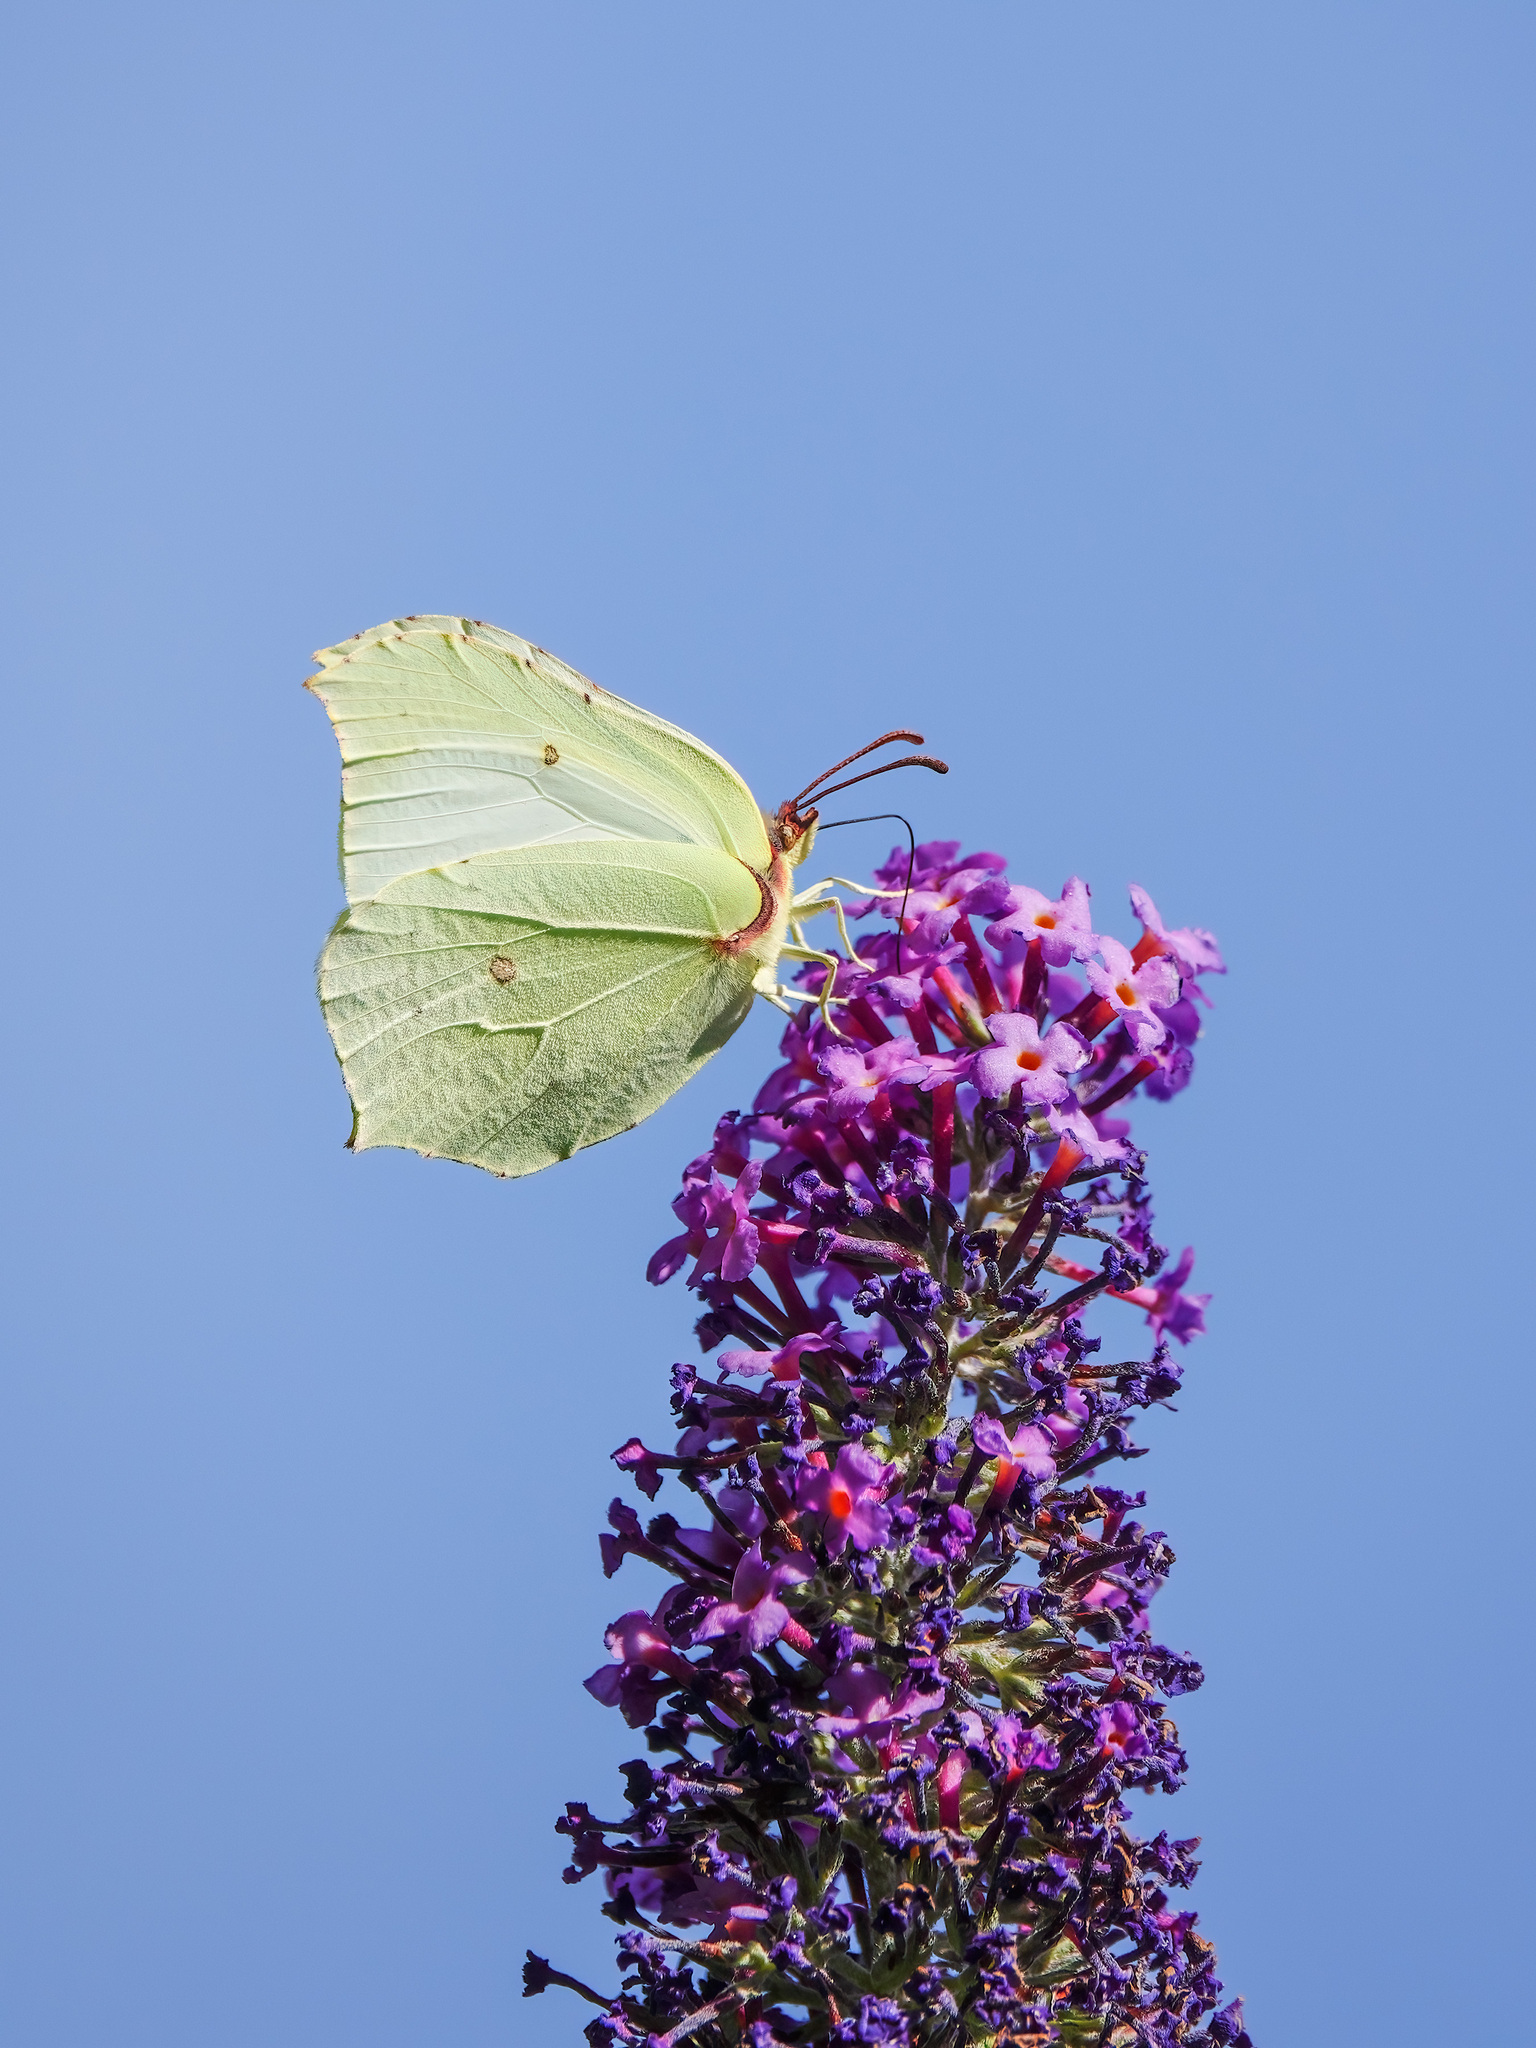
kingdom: Animalia
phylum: Arthropoda
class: Insecta
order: Lepidoptera
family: Pieridae
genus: Gonepteryx
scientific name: Gonepteryx rhamni
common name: Brimstone
